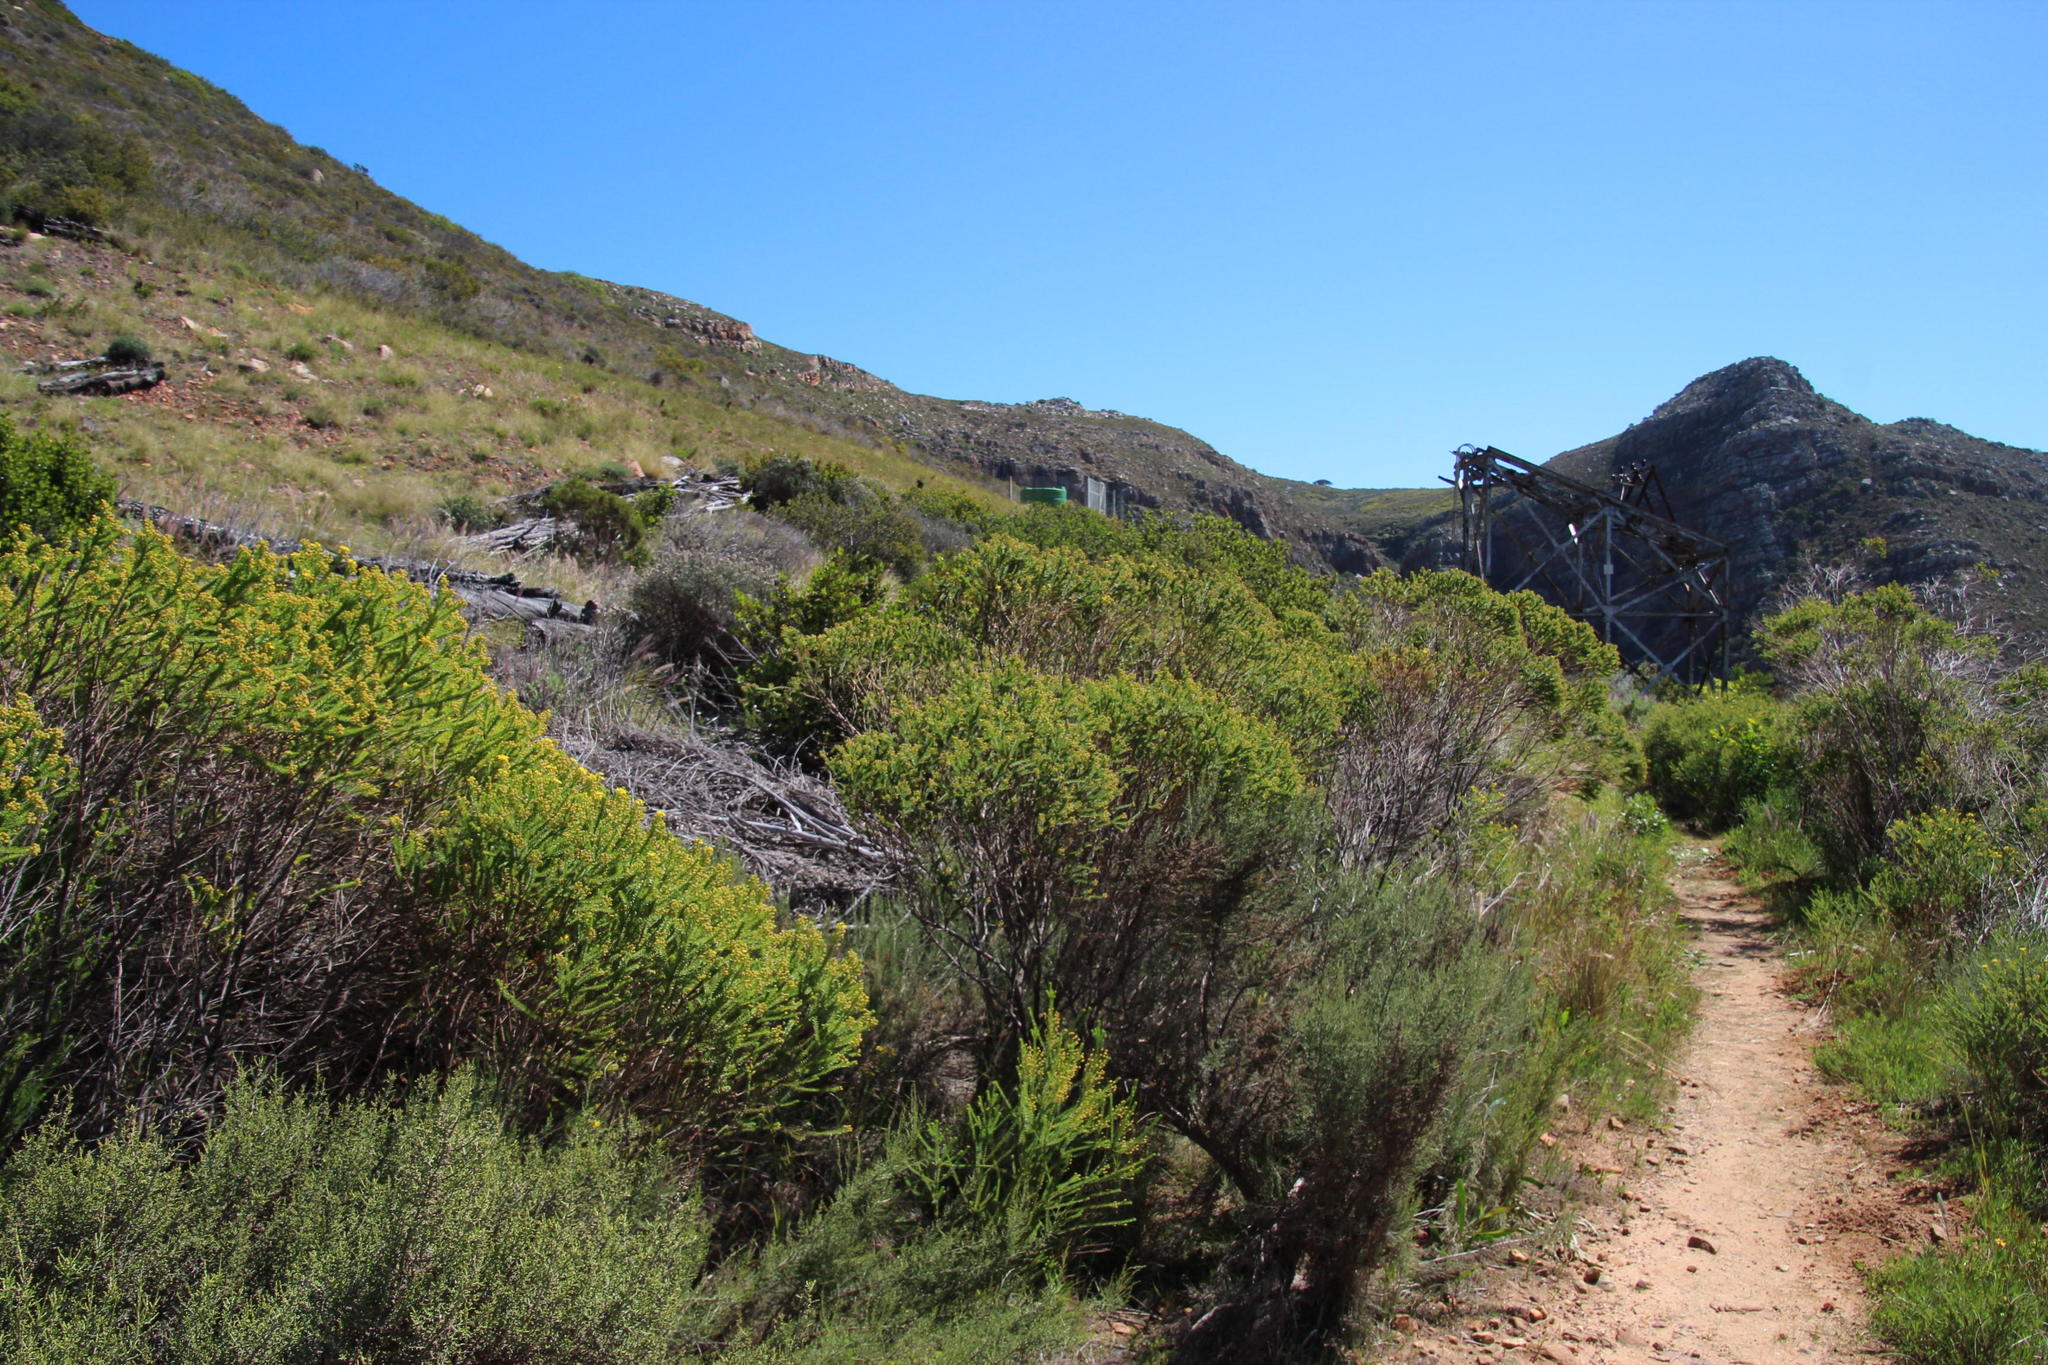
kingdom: Plantae
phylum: Tracheophyta
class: Magnoliopsida
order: Asterales
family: Asteraceae
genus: Euryops
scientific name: Euryops virgineus
